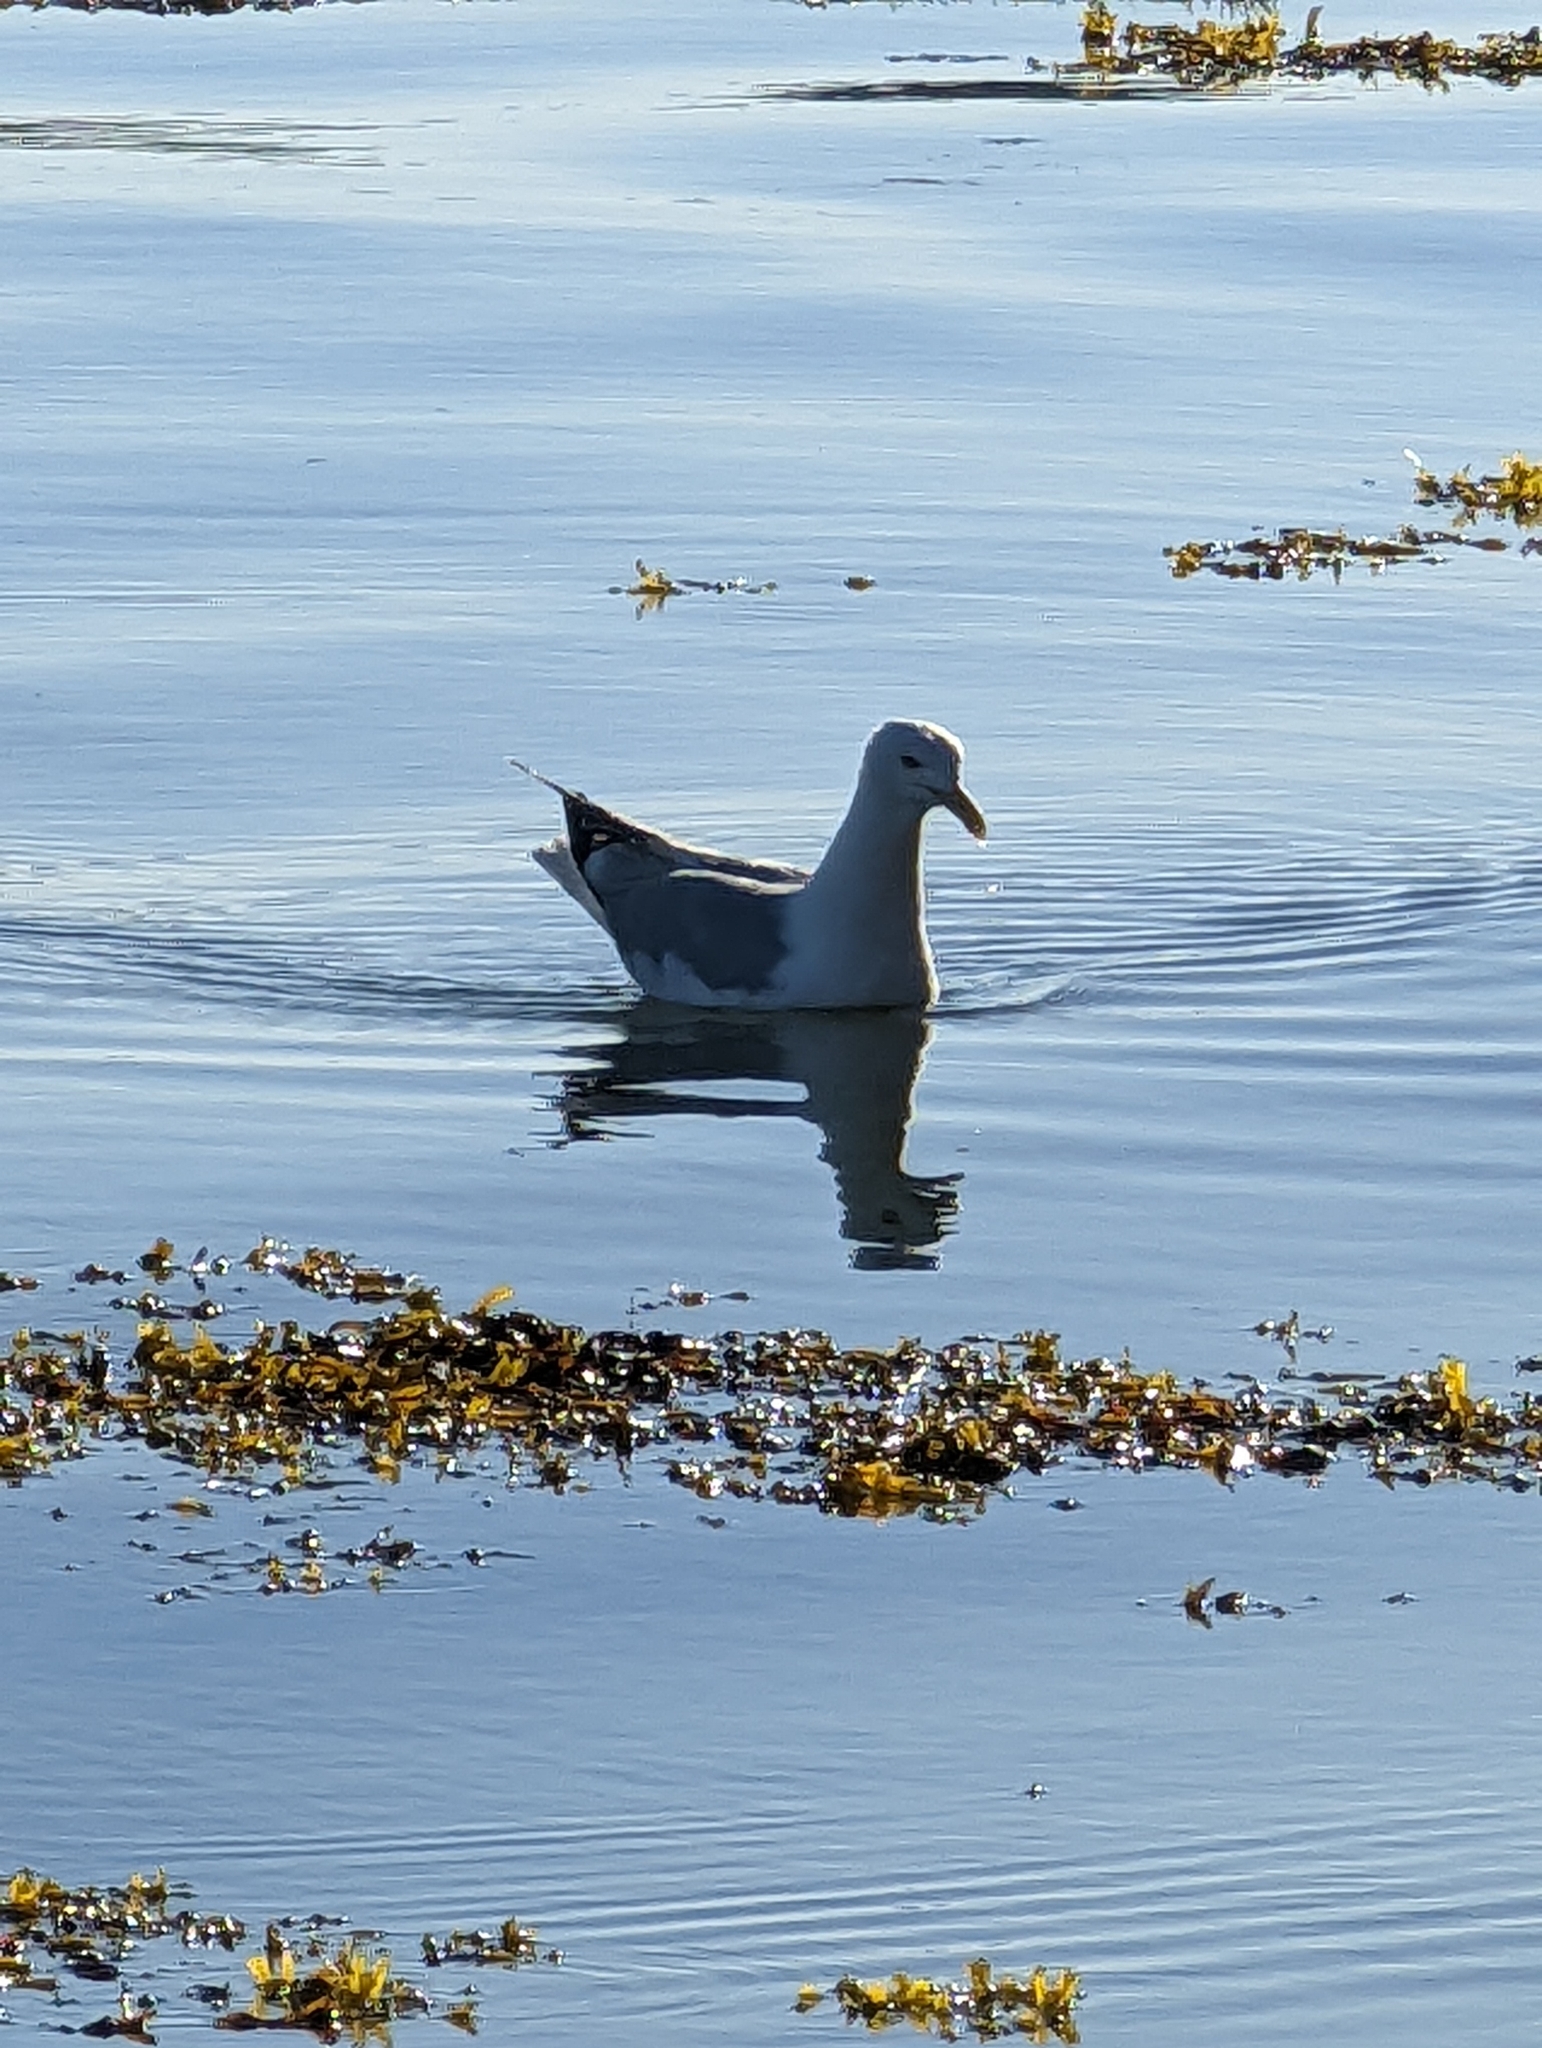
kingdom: Animalia
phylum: Chordata
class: Aves
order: Charadriiformes
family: Laridae
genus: Larus
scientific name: Larus argentatus
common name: Herring gull
